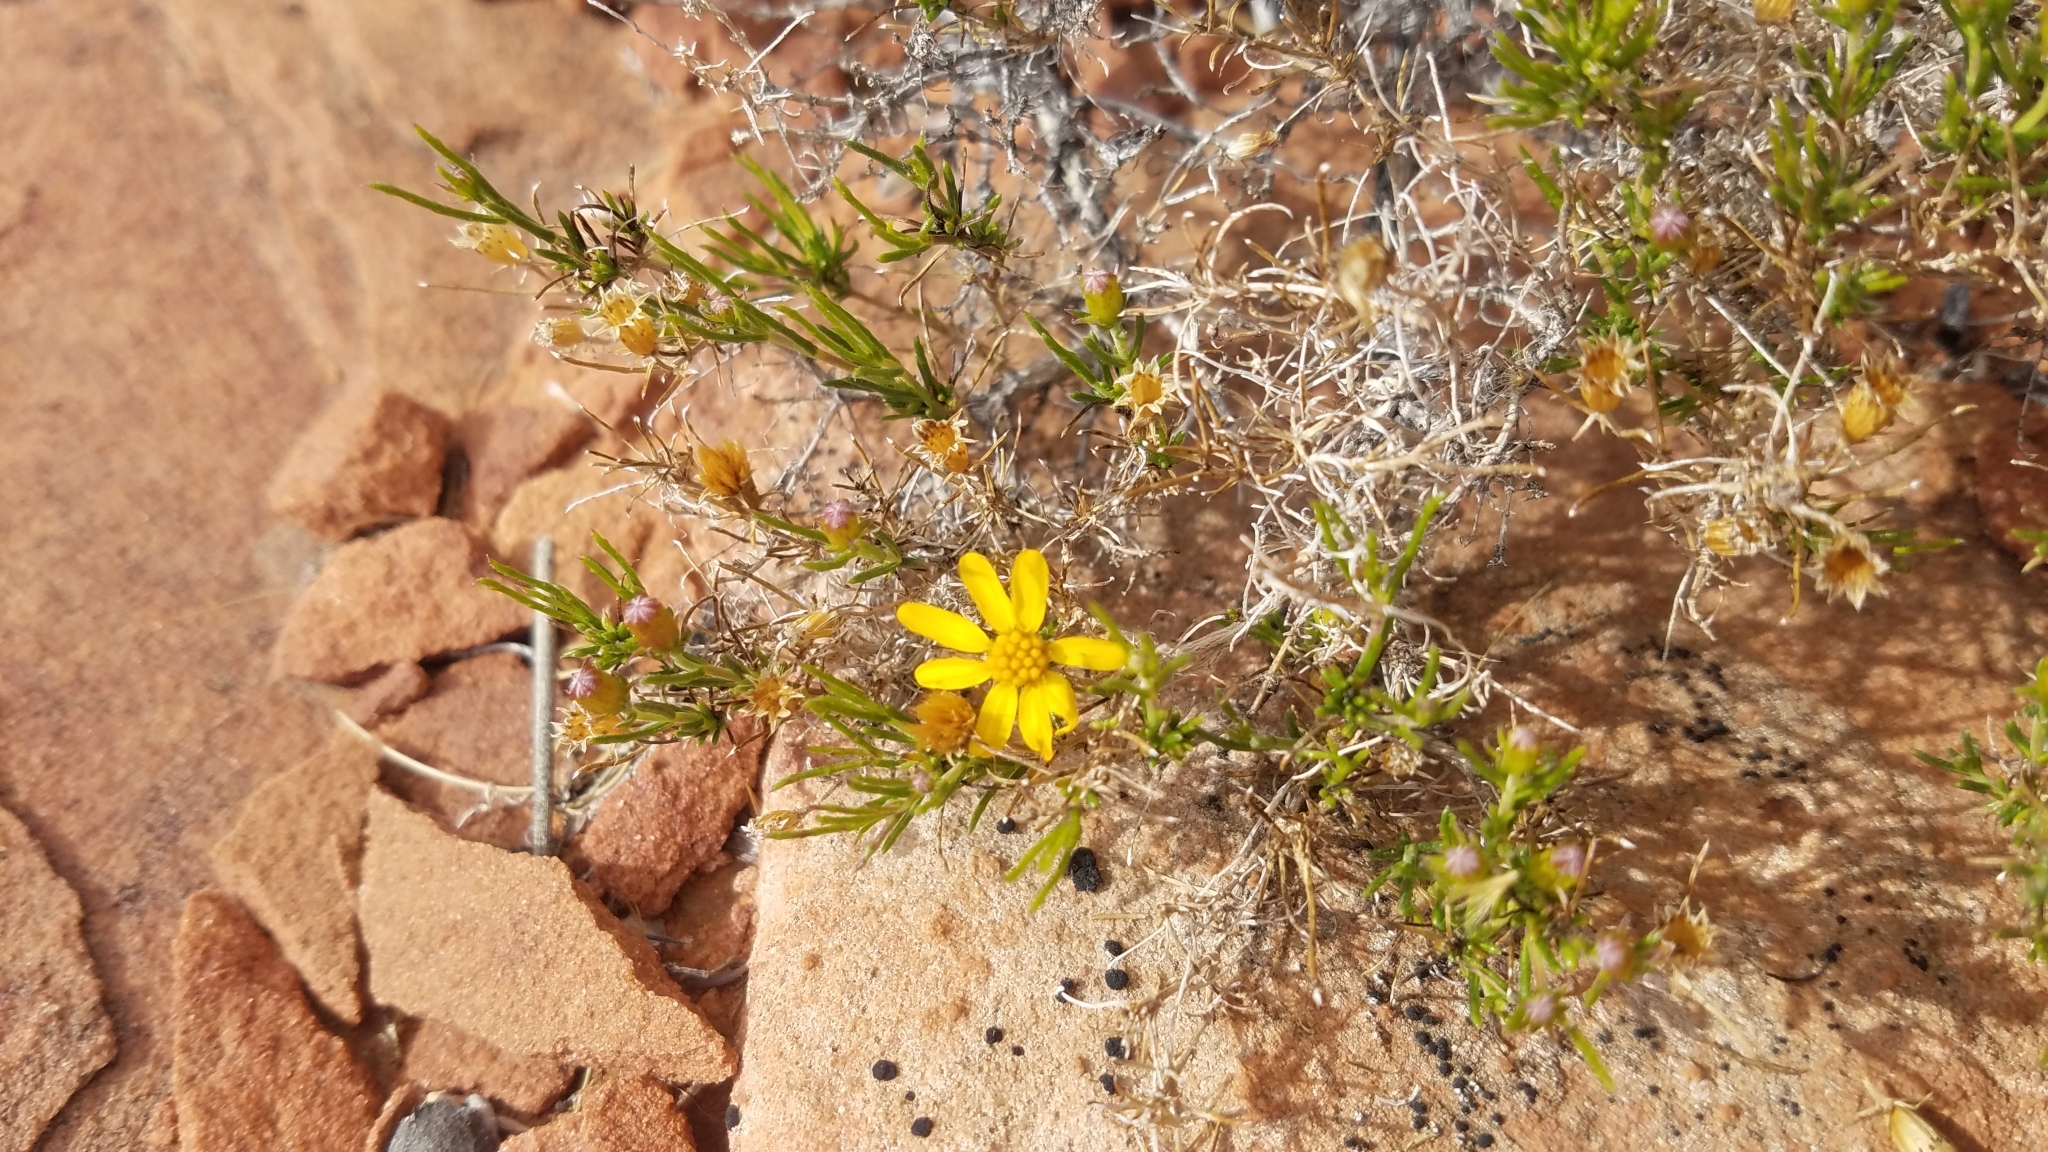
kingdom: Plantae
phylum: Tracheophyta
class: Magnoliopsida
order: Asterales
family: Asteraceae
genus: Thymophylla
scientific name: Thymophylla acerosa
